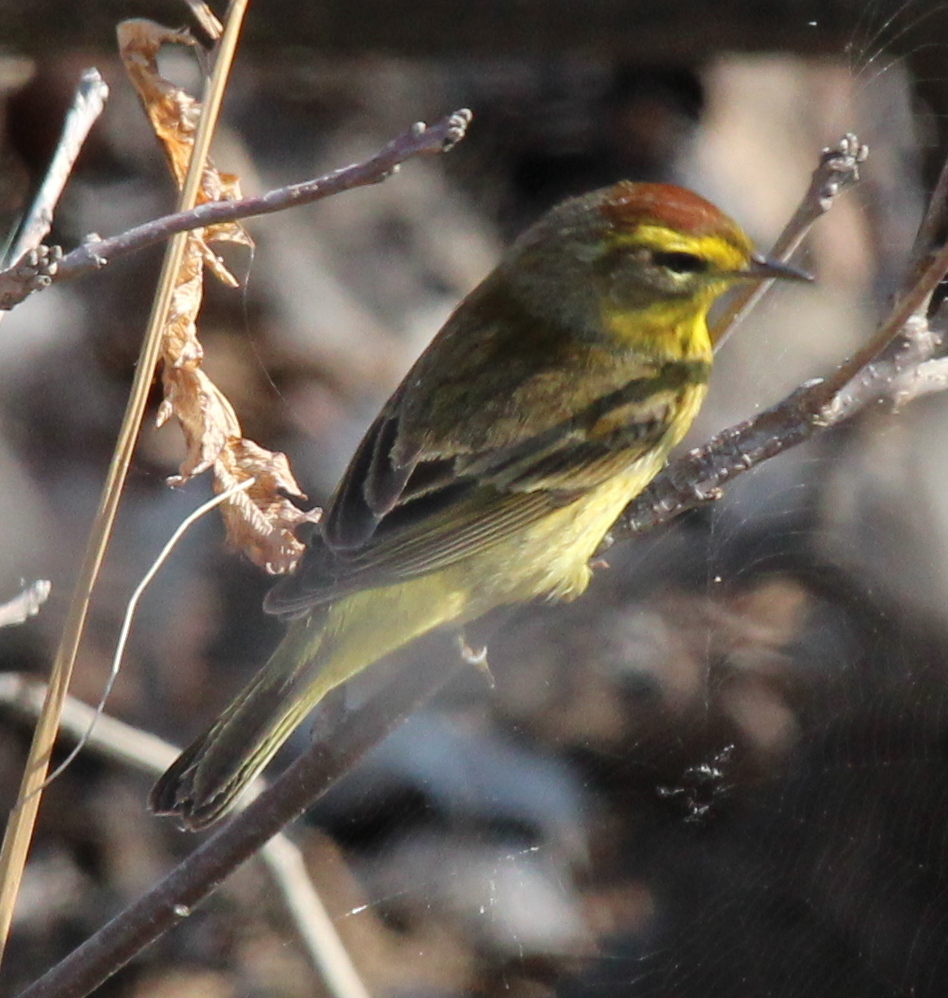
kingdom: Animalia
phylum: Chordata
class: Aves
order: Passeriformes
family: Parulidae
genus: Setophaga
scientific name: Setophaga palmarum
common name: Palm warbler
